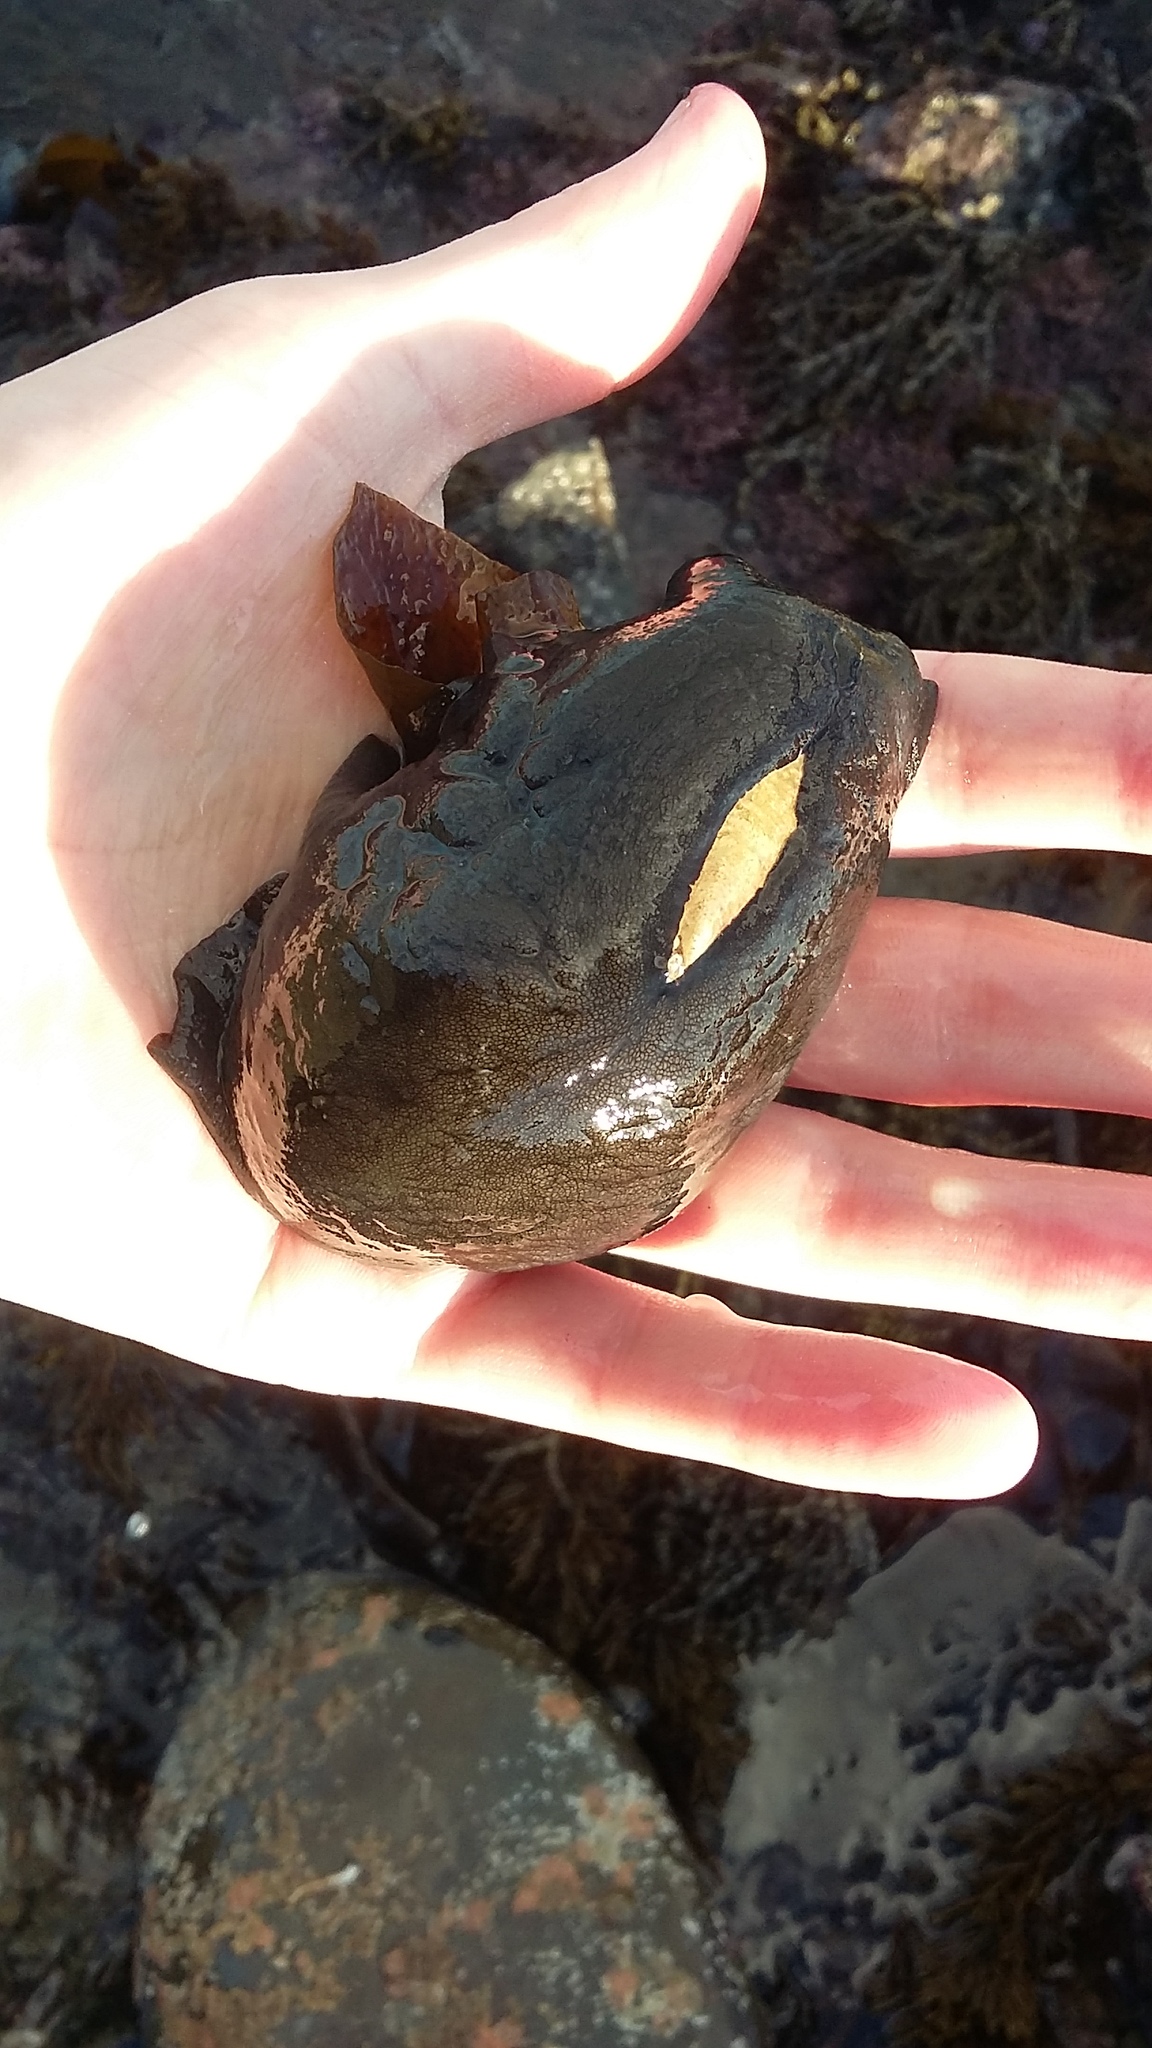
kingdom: Animalia
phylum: Mollusca
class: Gastropoda
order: Lepetellida
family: Fissurellidae
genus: Scutus
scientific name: Scutus breviculus
